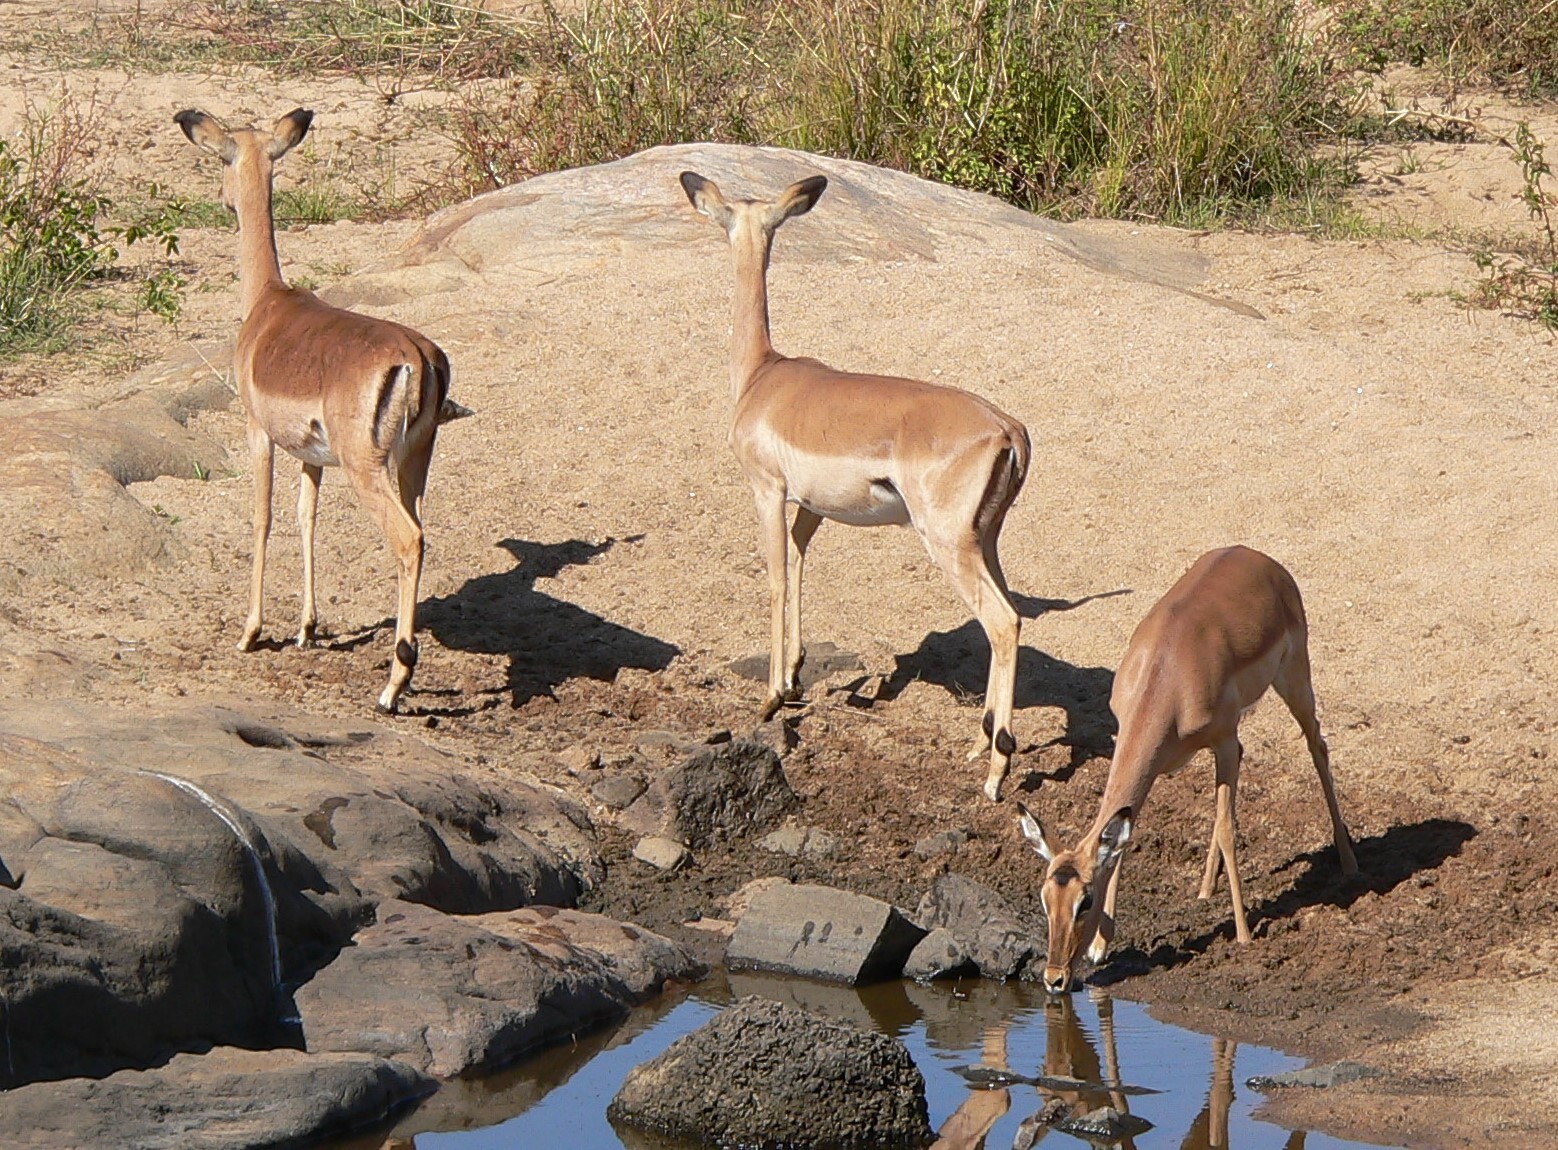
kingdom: Animalia
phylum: Chordata
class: Mammalia
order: Artiodactyla
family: Bovidae
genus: Aepyceros
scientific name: Aepyceros melampus
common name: Impala
